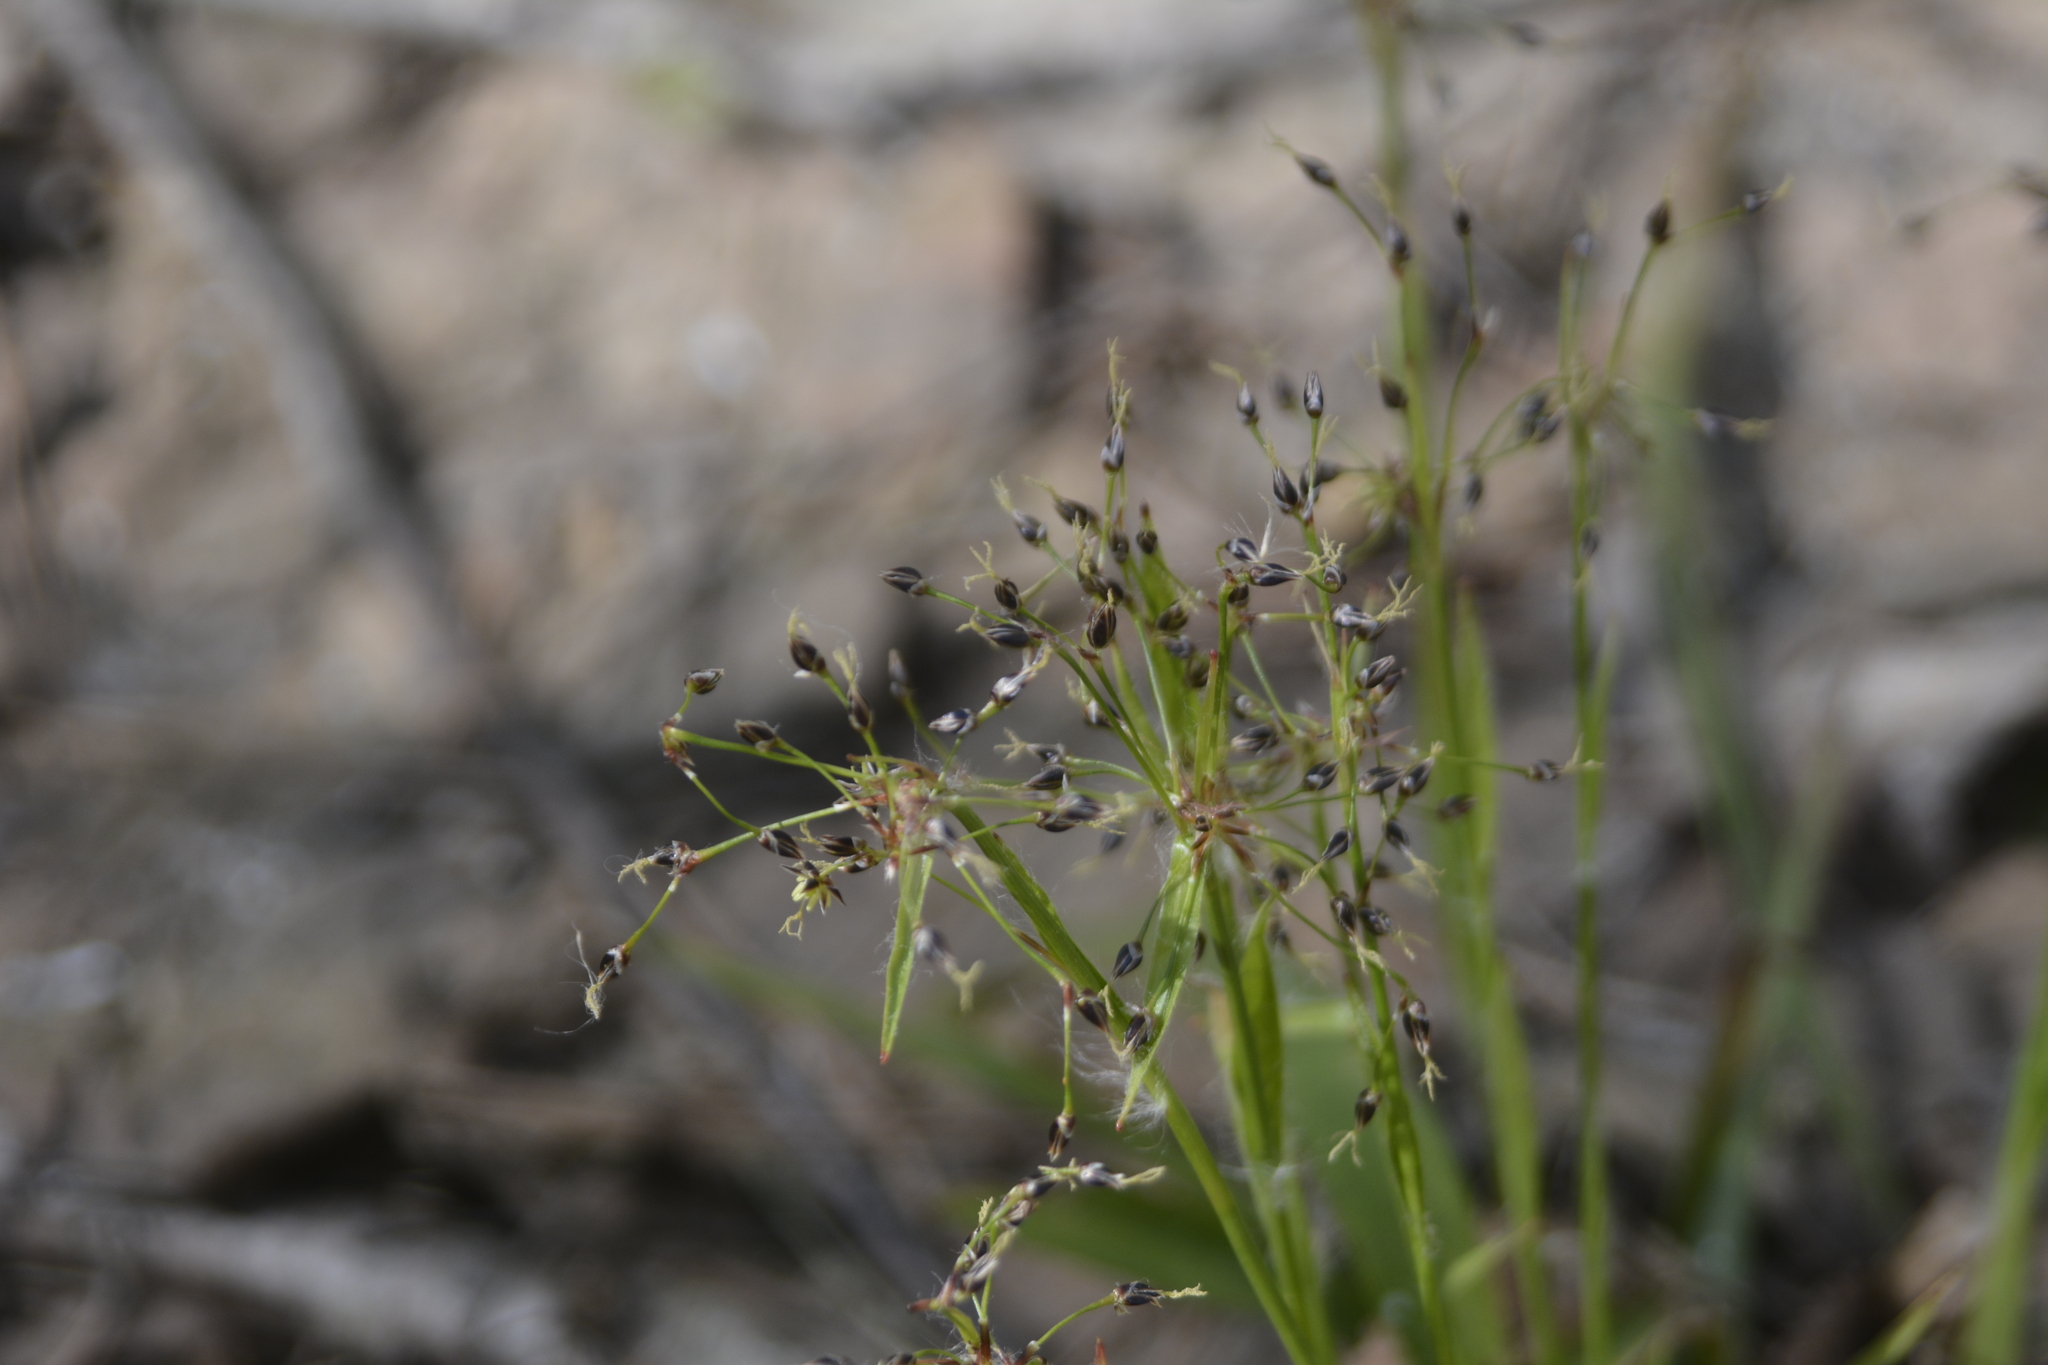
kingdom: Plantae
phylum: Tracheophyta
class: Liliopsida
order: Poales
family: Juncaceae
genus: Luzula
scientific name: Luzula pilosa
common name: Hairy wood-rush
